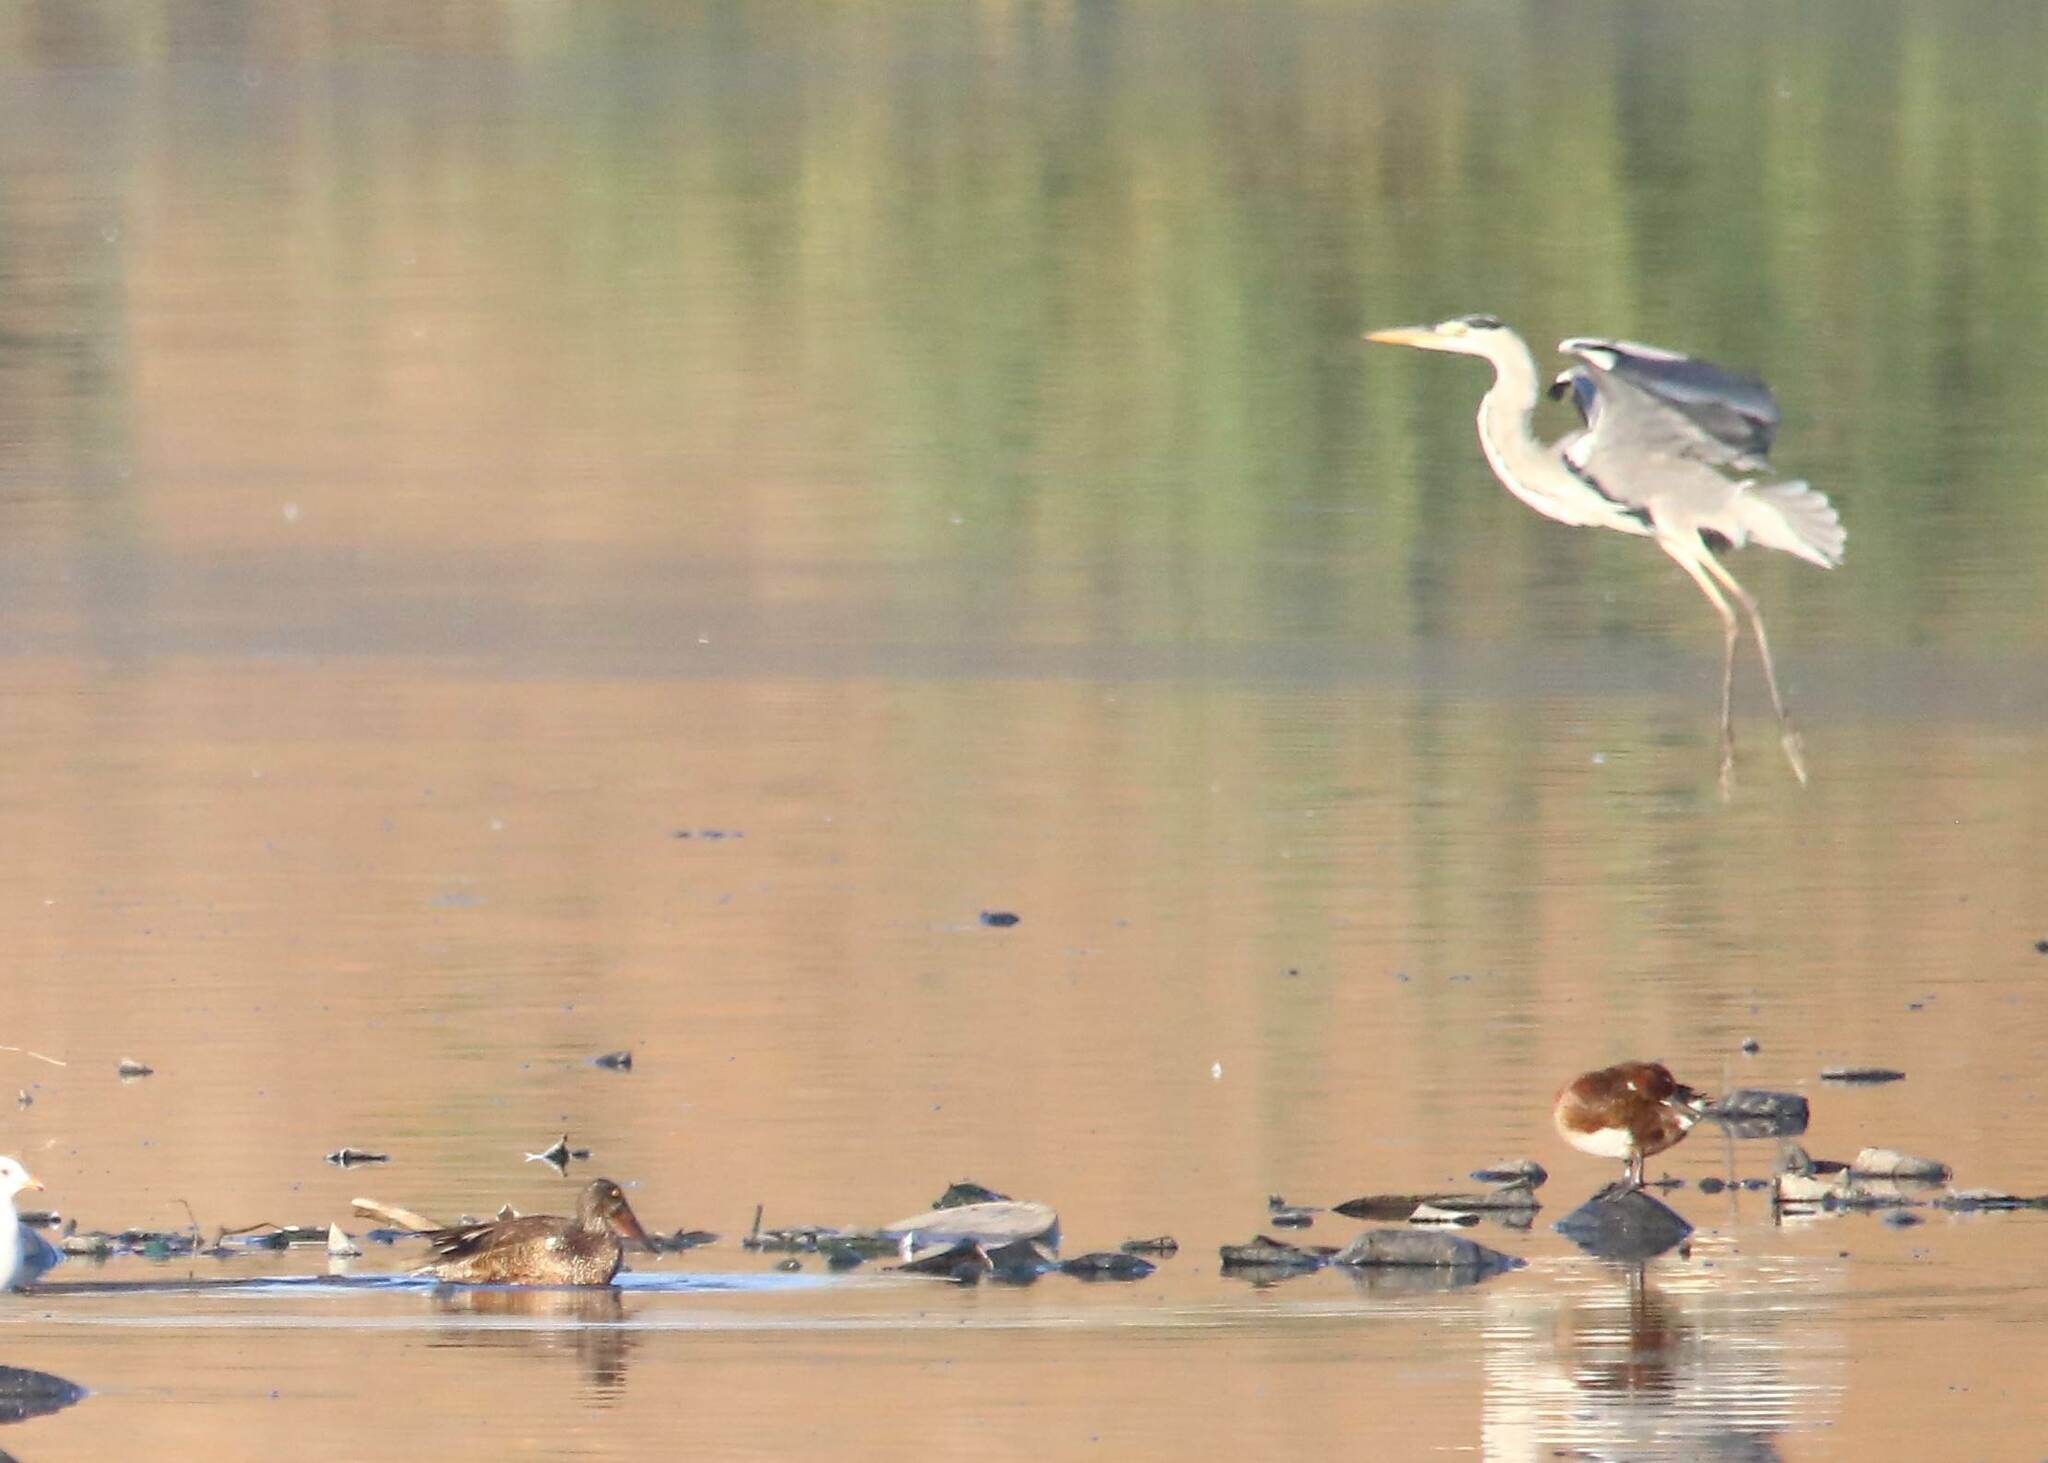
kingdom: Animalia
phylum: Chordata
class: Aves
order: Pelecaniformes
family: Ardeidae
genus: Ardea
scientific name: Ardea cinerea
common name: Grey heron
